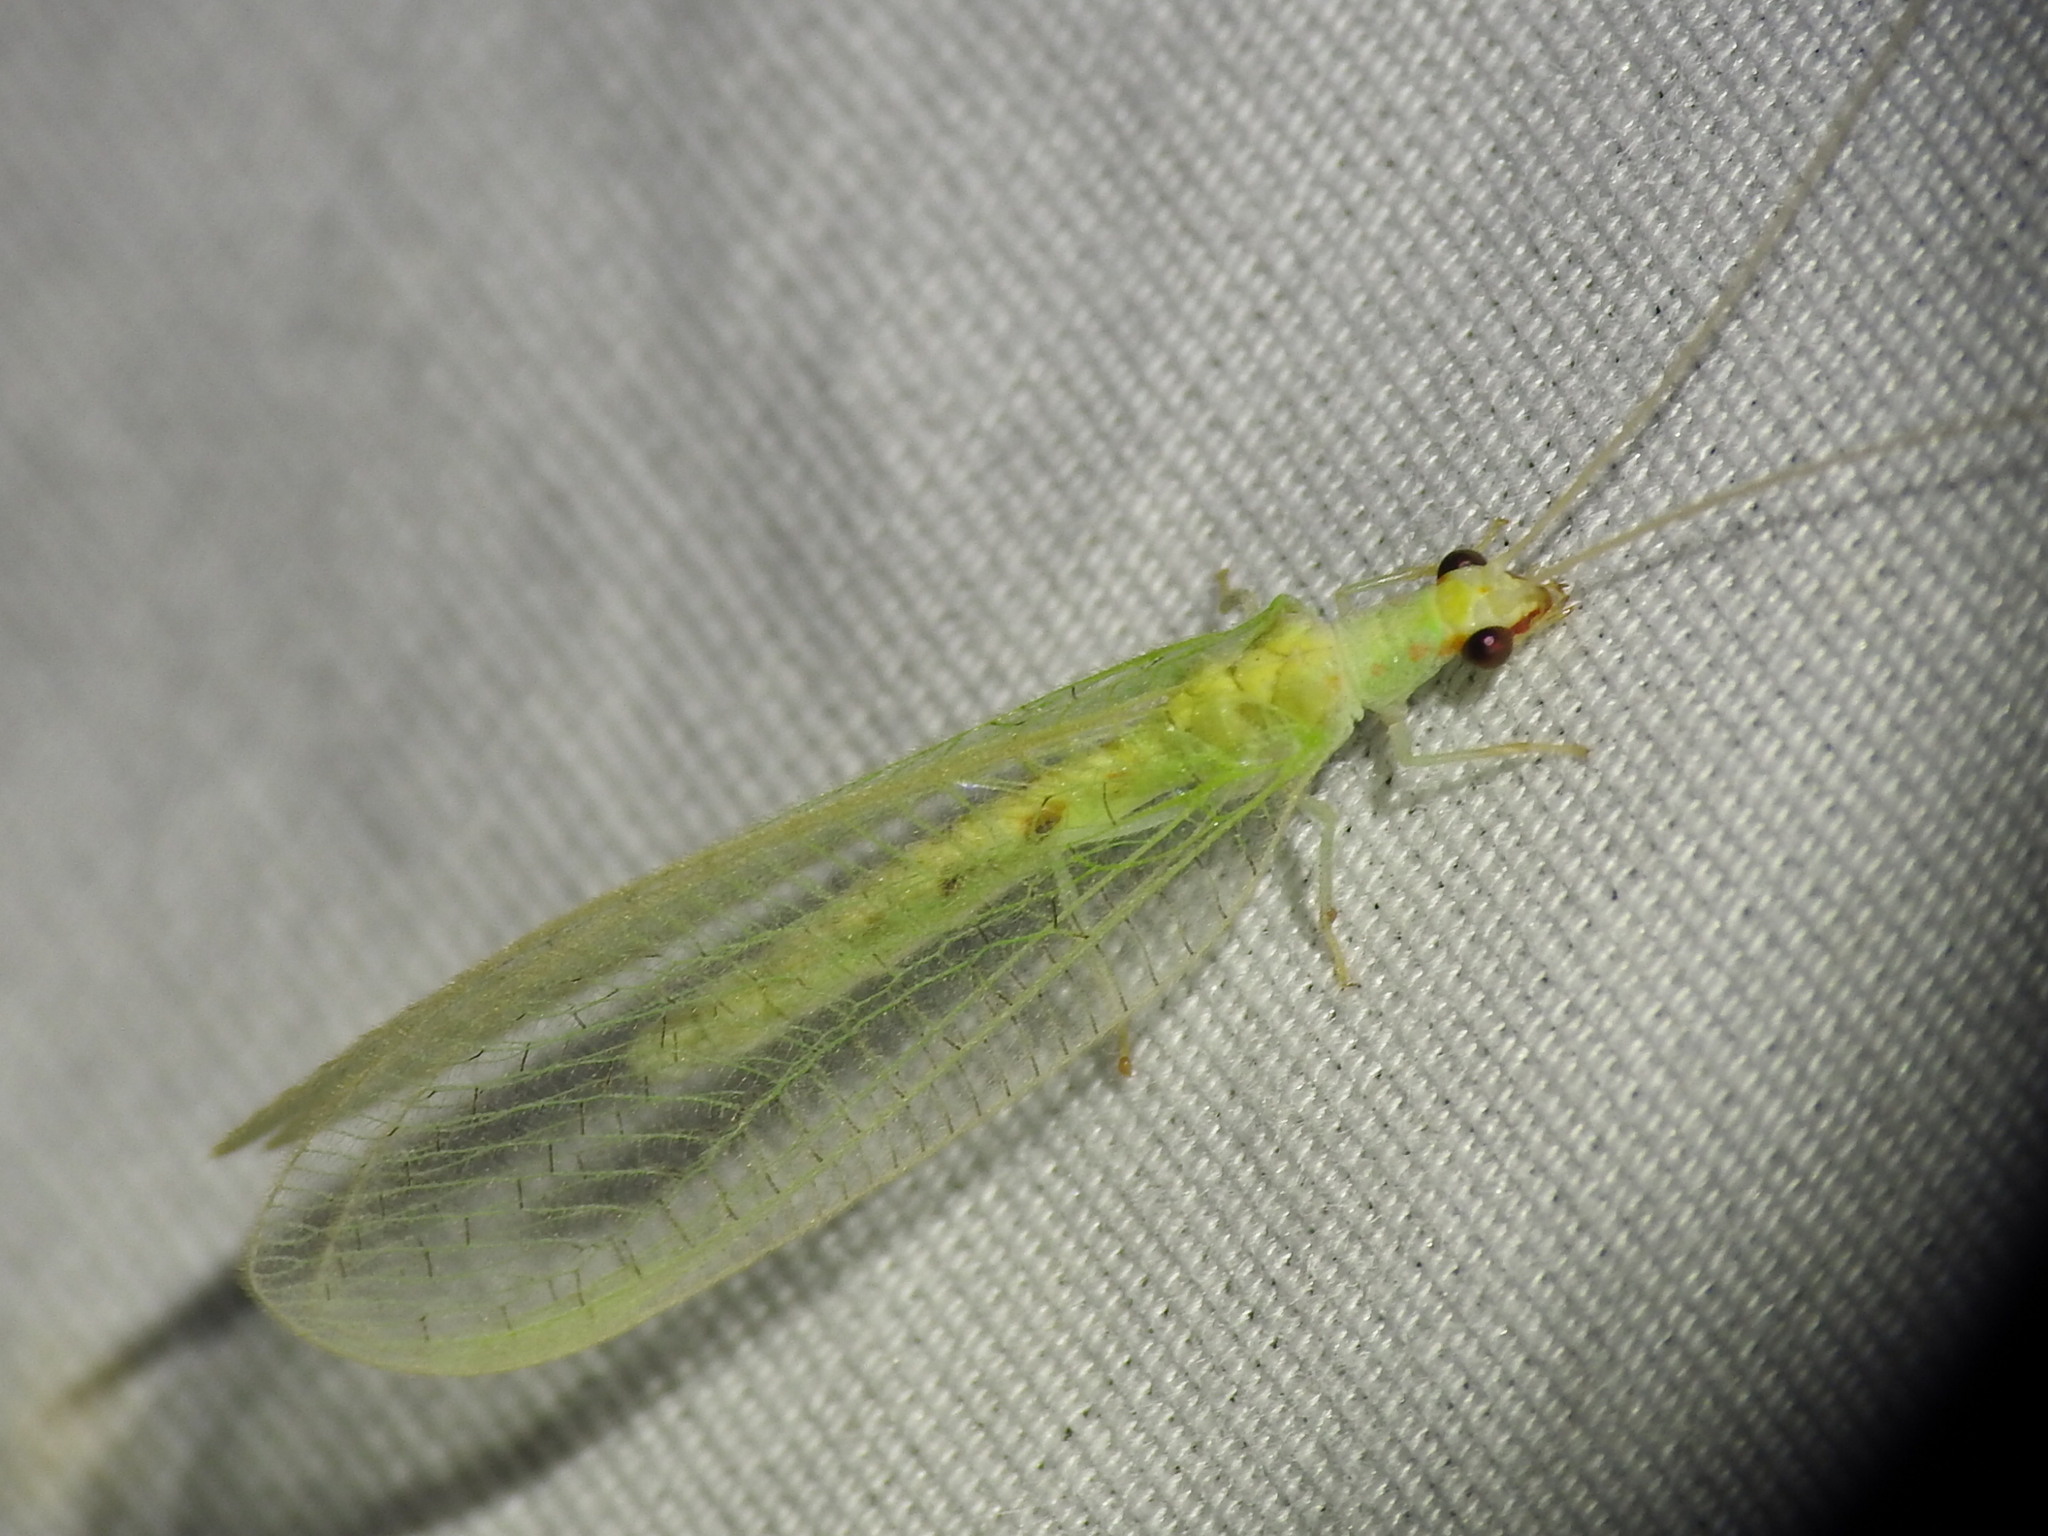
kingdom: Animalia
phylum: Arthropoda
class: Insecta
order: Neuroptera
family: Chrysopidae
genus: Chrysopa
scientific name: Chrysopa quadripunctata
